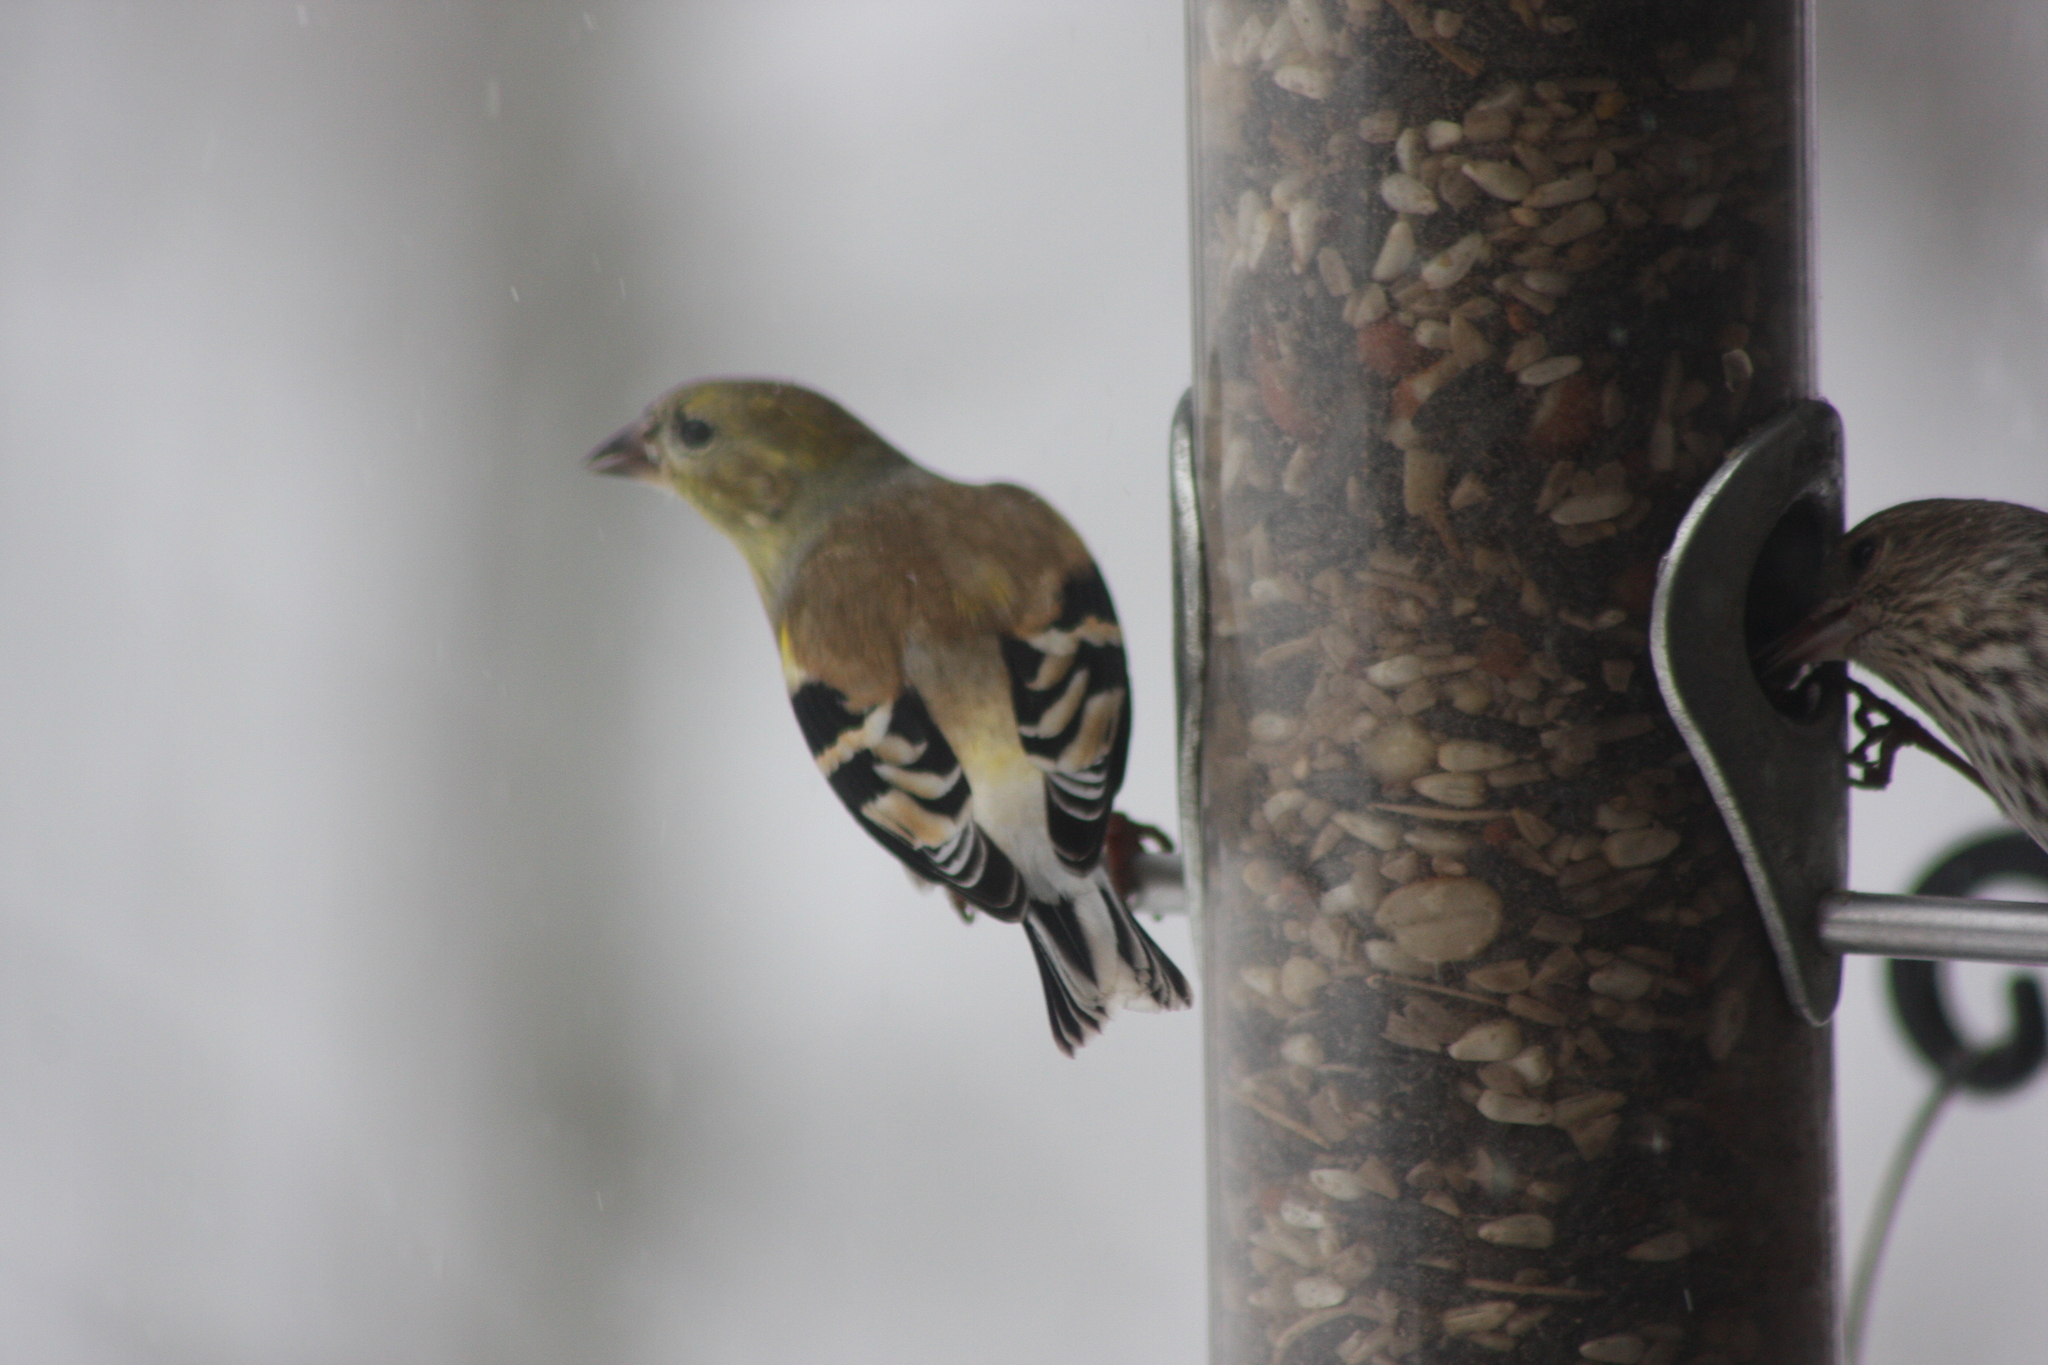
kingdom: Animalia
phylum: Chordata
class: Aves
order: Passeriformes
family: Fringillidae
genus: Spinus
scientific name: Spinus tristis
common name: American goldfinch
